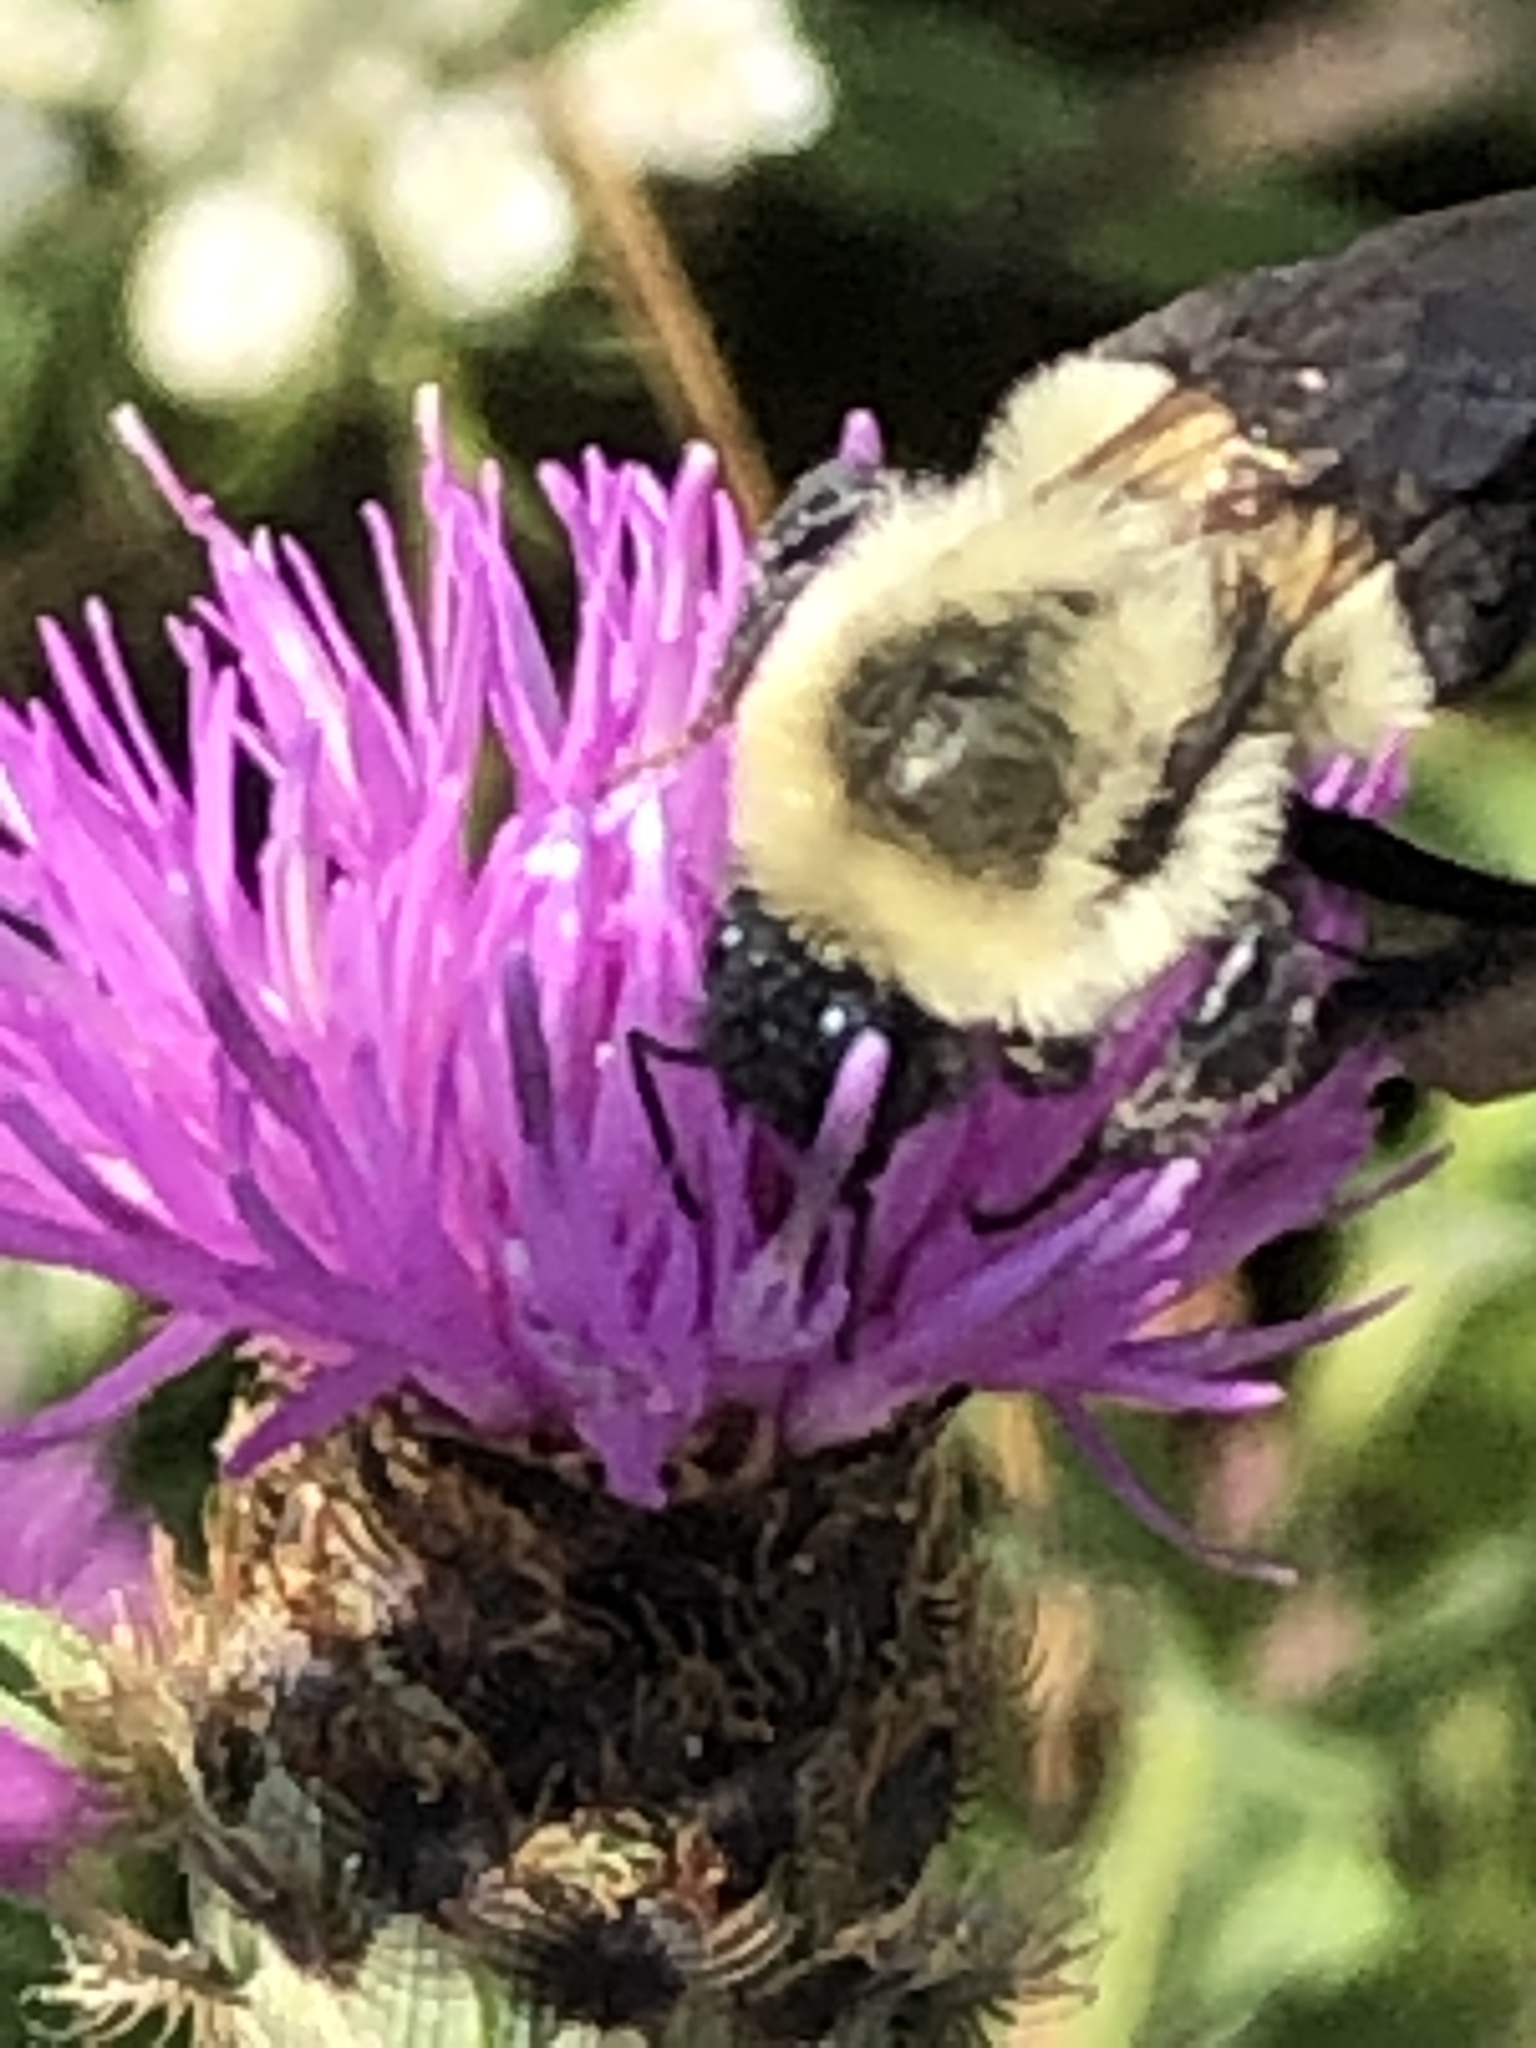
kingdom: Animalia
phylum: Arthropoda
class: Insecta
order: Hymenoptera
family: Apidae
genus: Bombus
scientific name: Bombus impatiens
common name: Common eastern bumble bee
